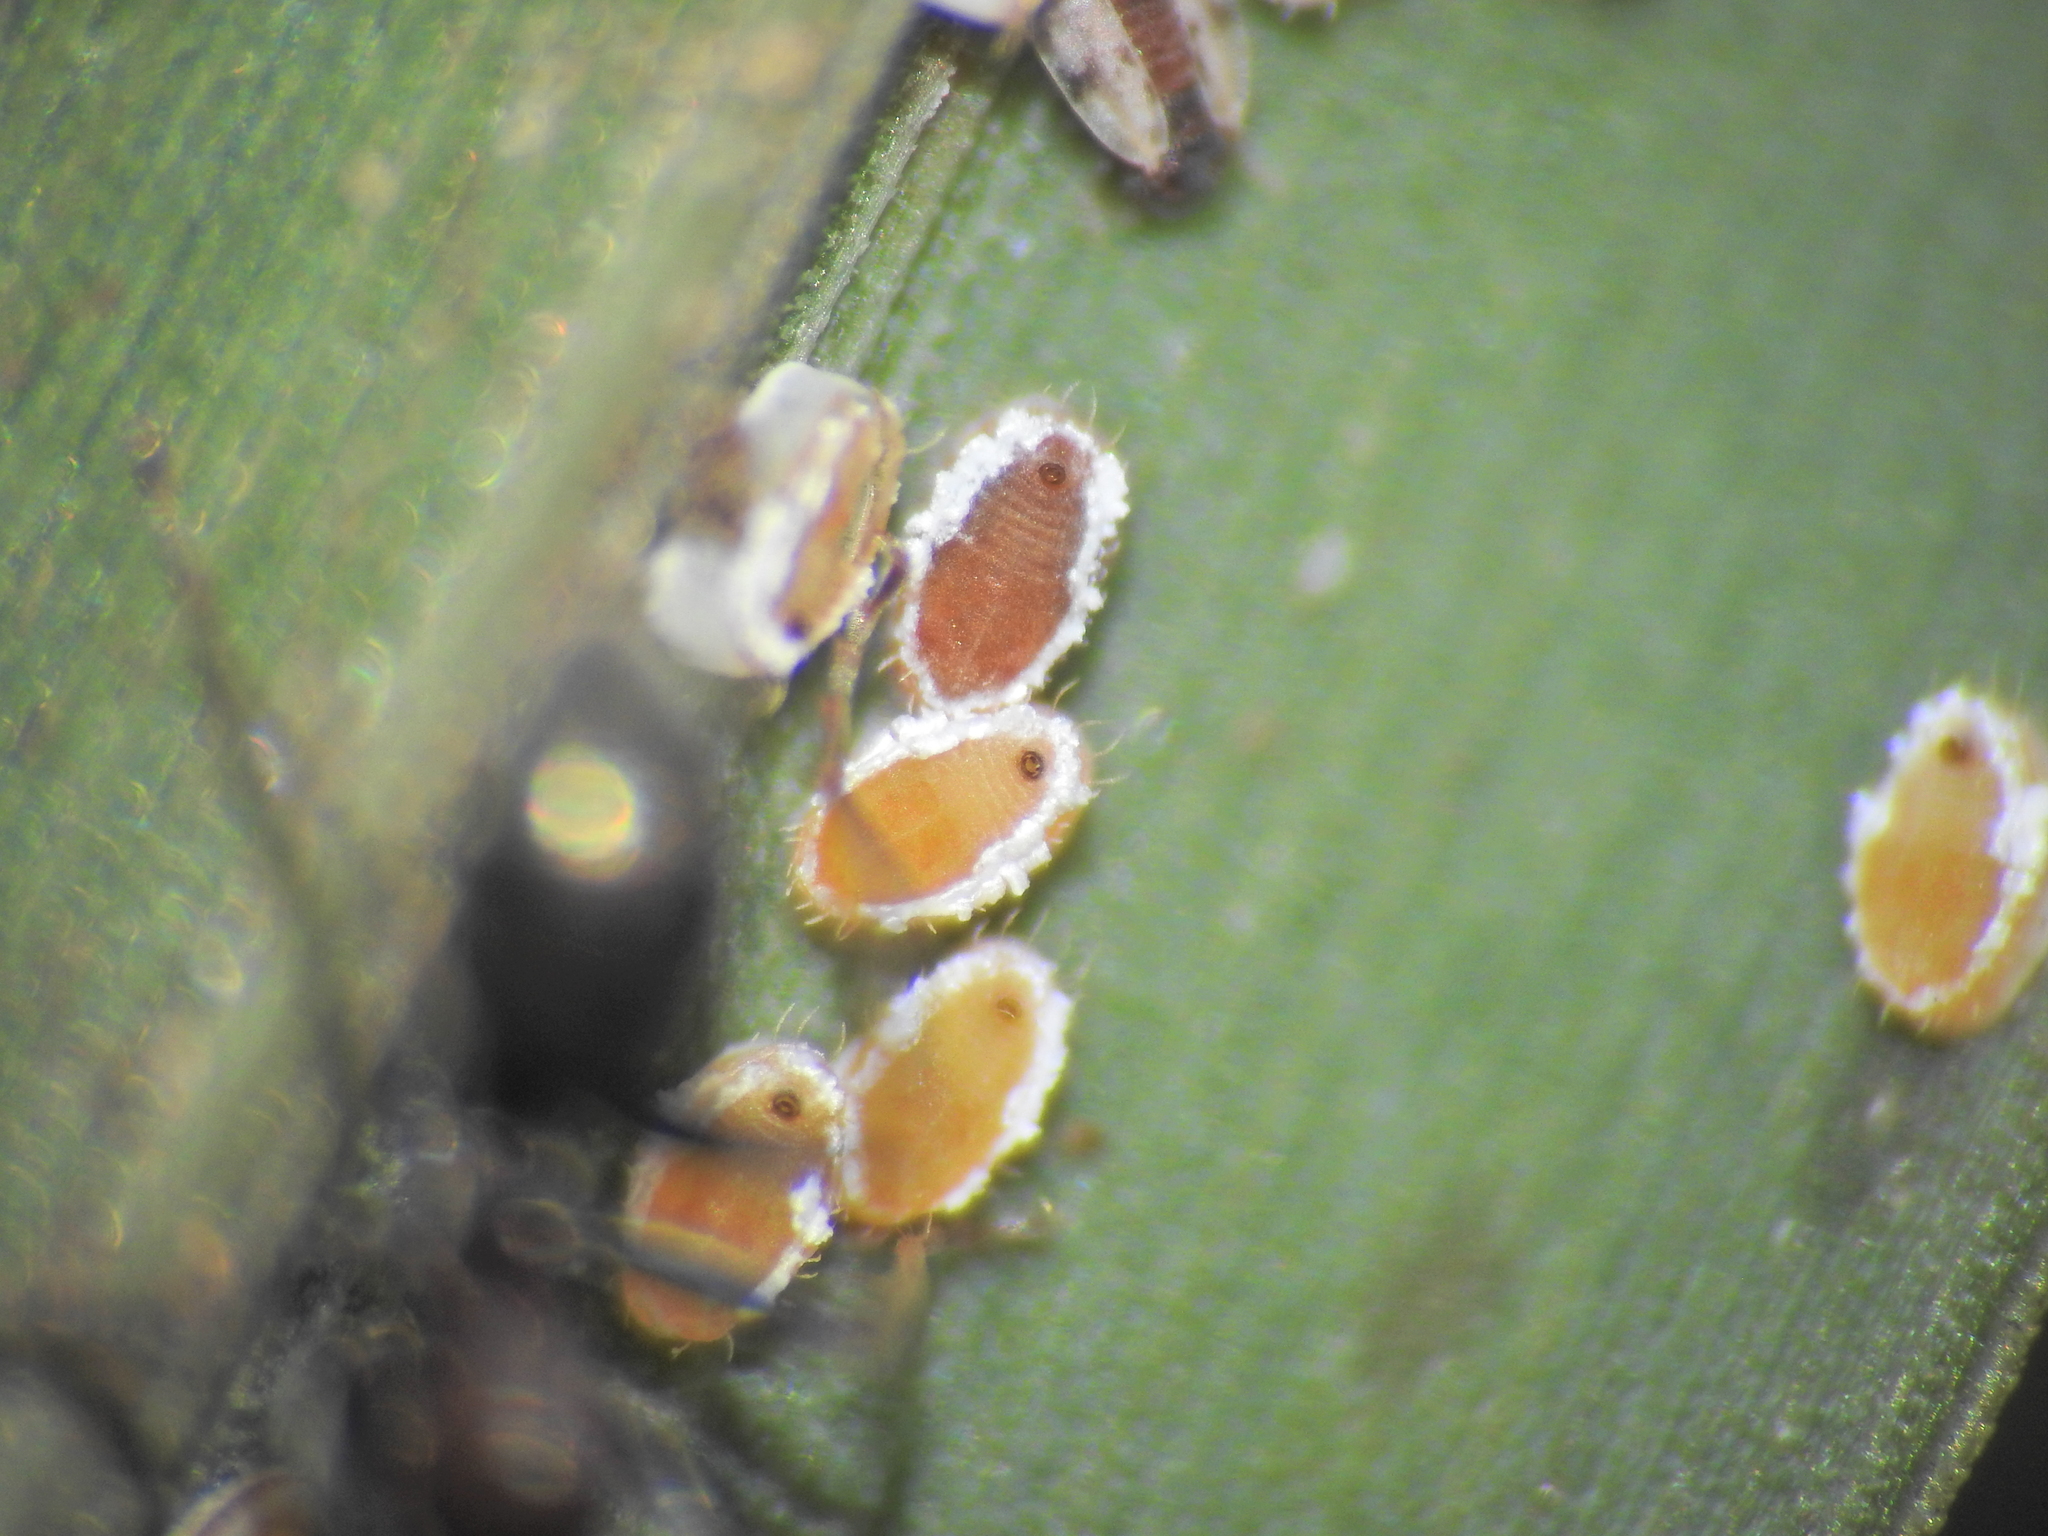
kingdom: Animalia
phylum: Arthropoda
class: Insecta
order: Hemiptera
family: Aleyrodidae
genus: Neomaskellia
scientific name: Neomaskellia bergii
